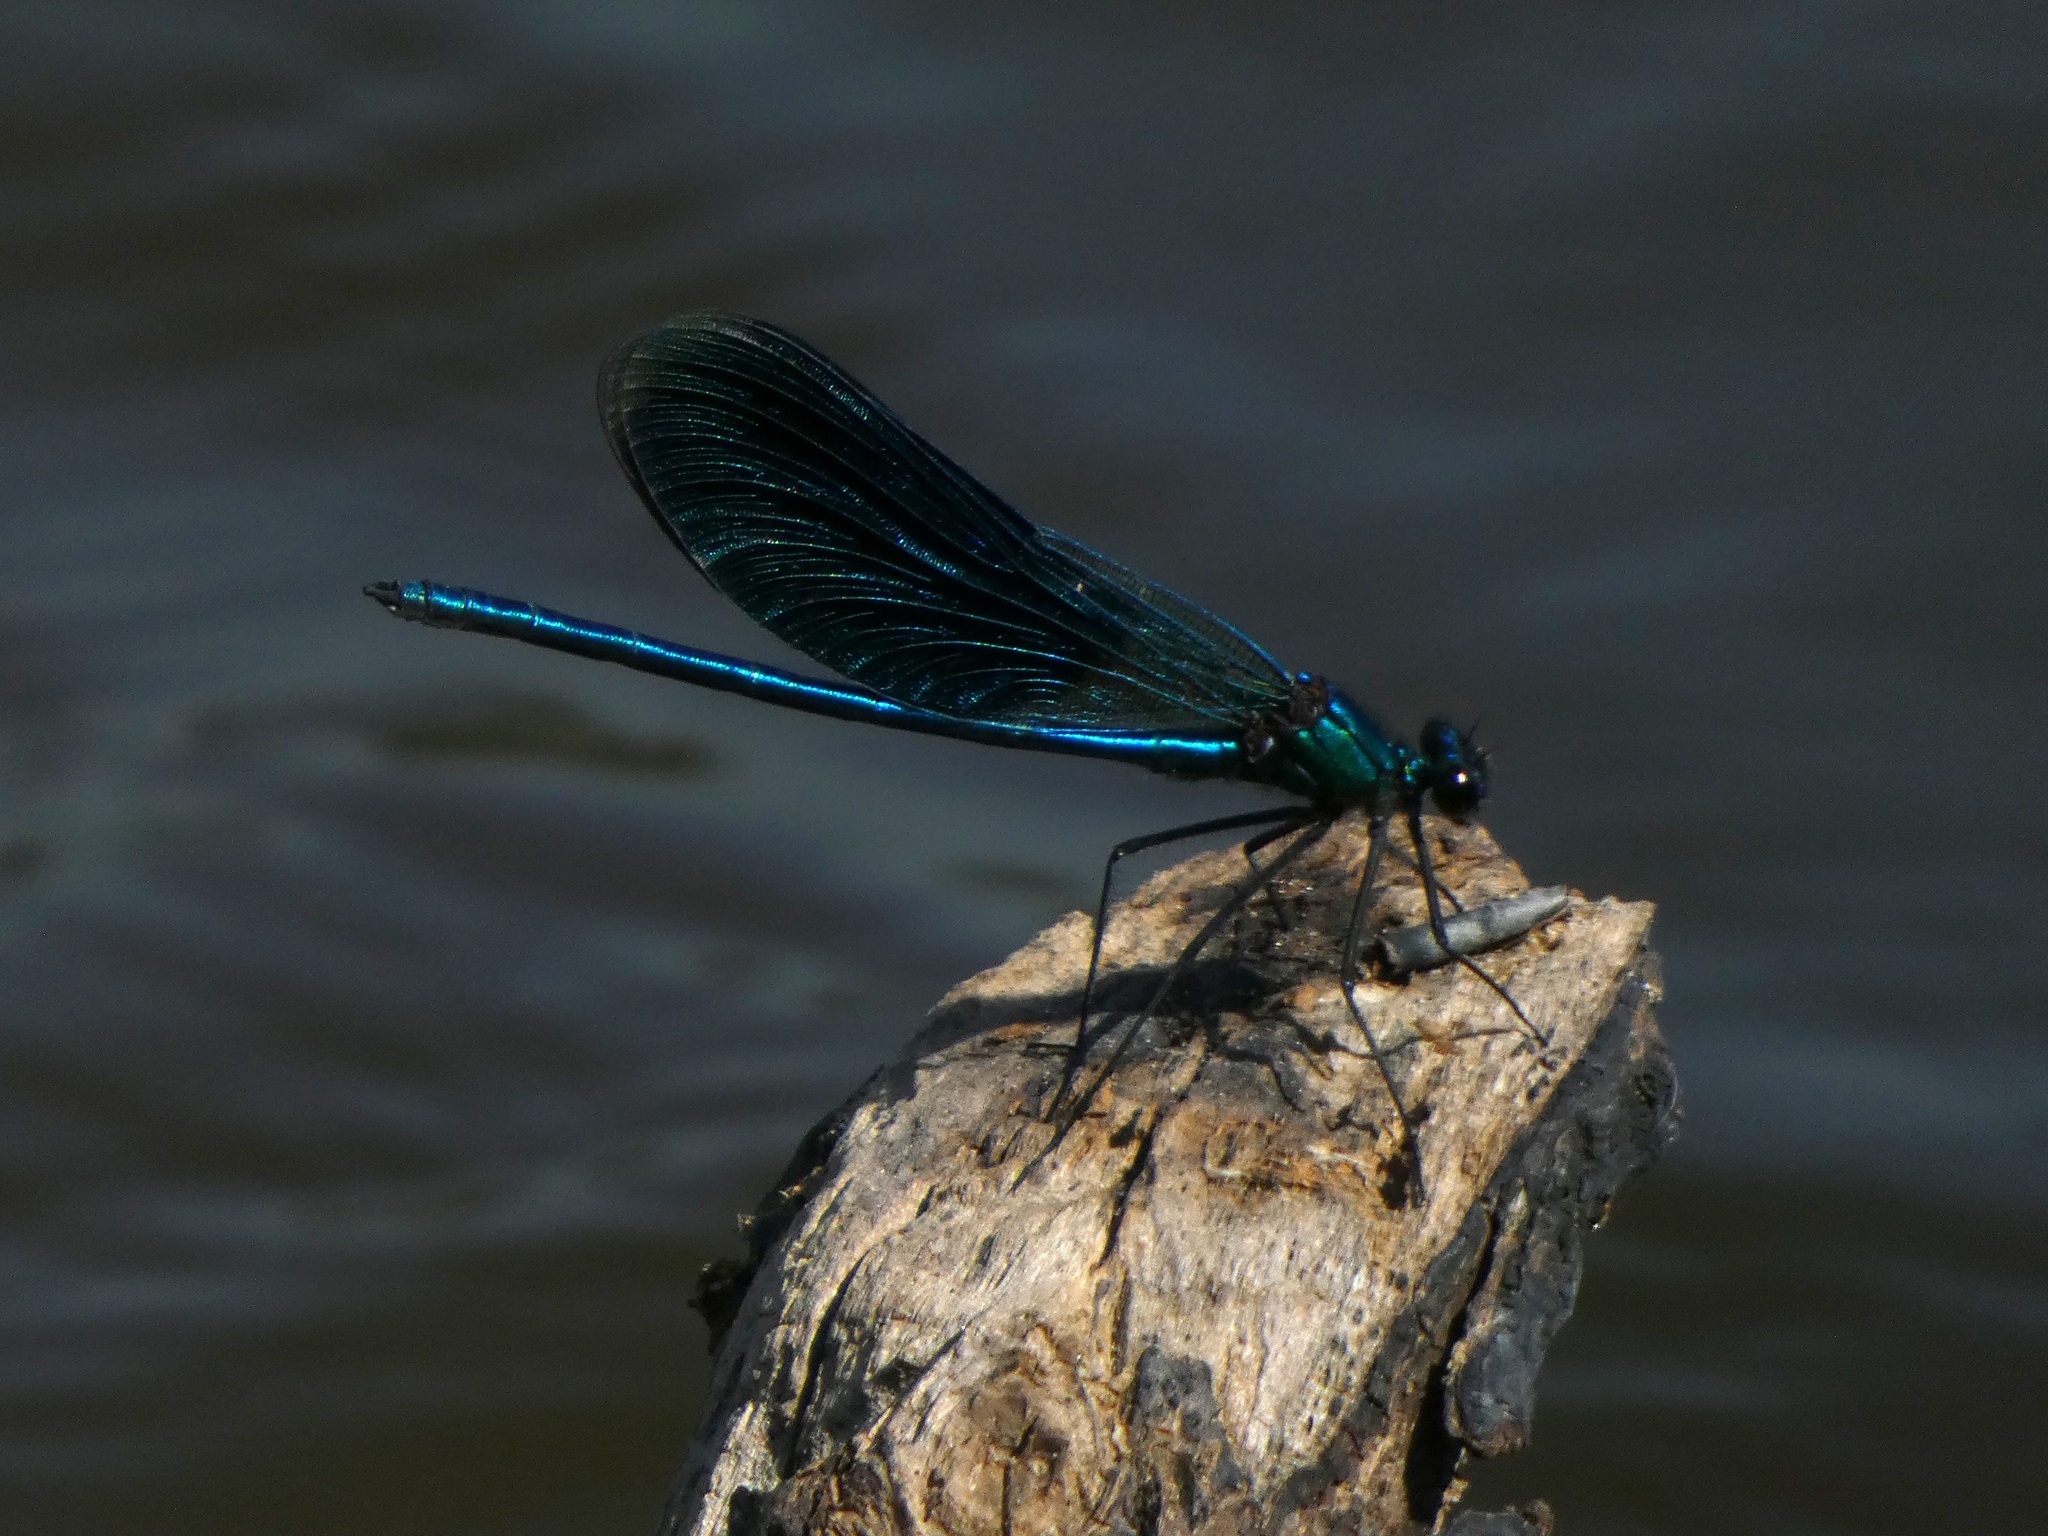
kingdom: Animalia
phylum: Arthropoda
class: Insecta
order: Odonata
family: Calopterygidae
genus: Calopteryx
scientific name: Calopteryx splendens
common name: Banded demoiselle
